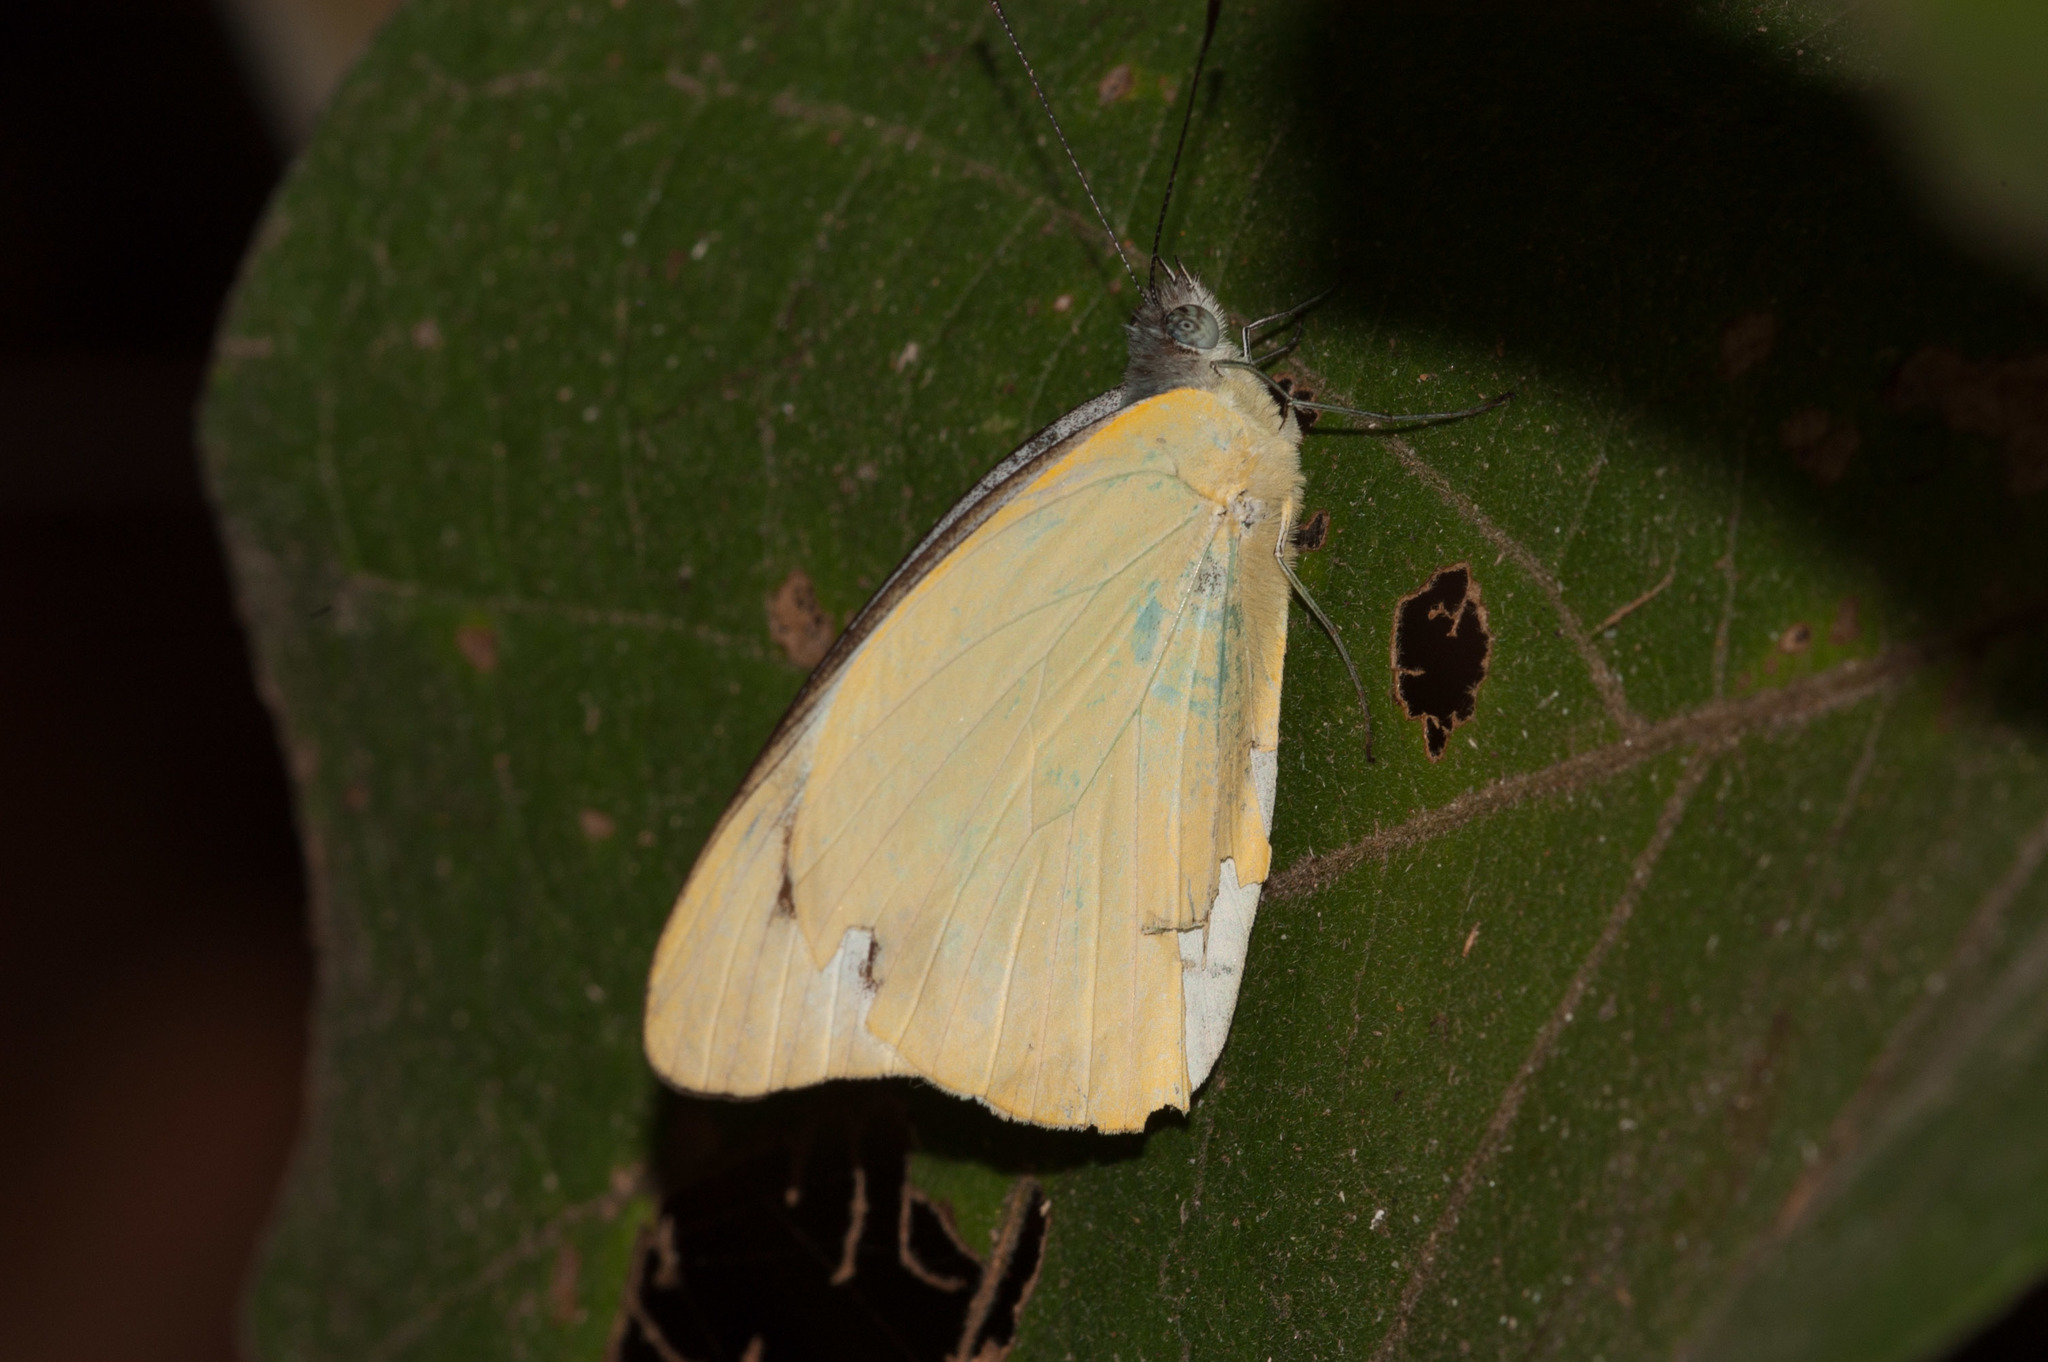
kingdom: Animalia
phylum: Arthropoda
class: Insecta
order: Lepidoptera
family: Pieridae
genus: Appias
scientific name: Appias paulina
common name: Ceylon lesser albatross
